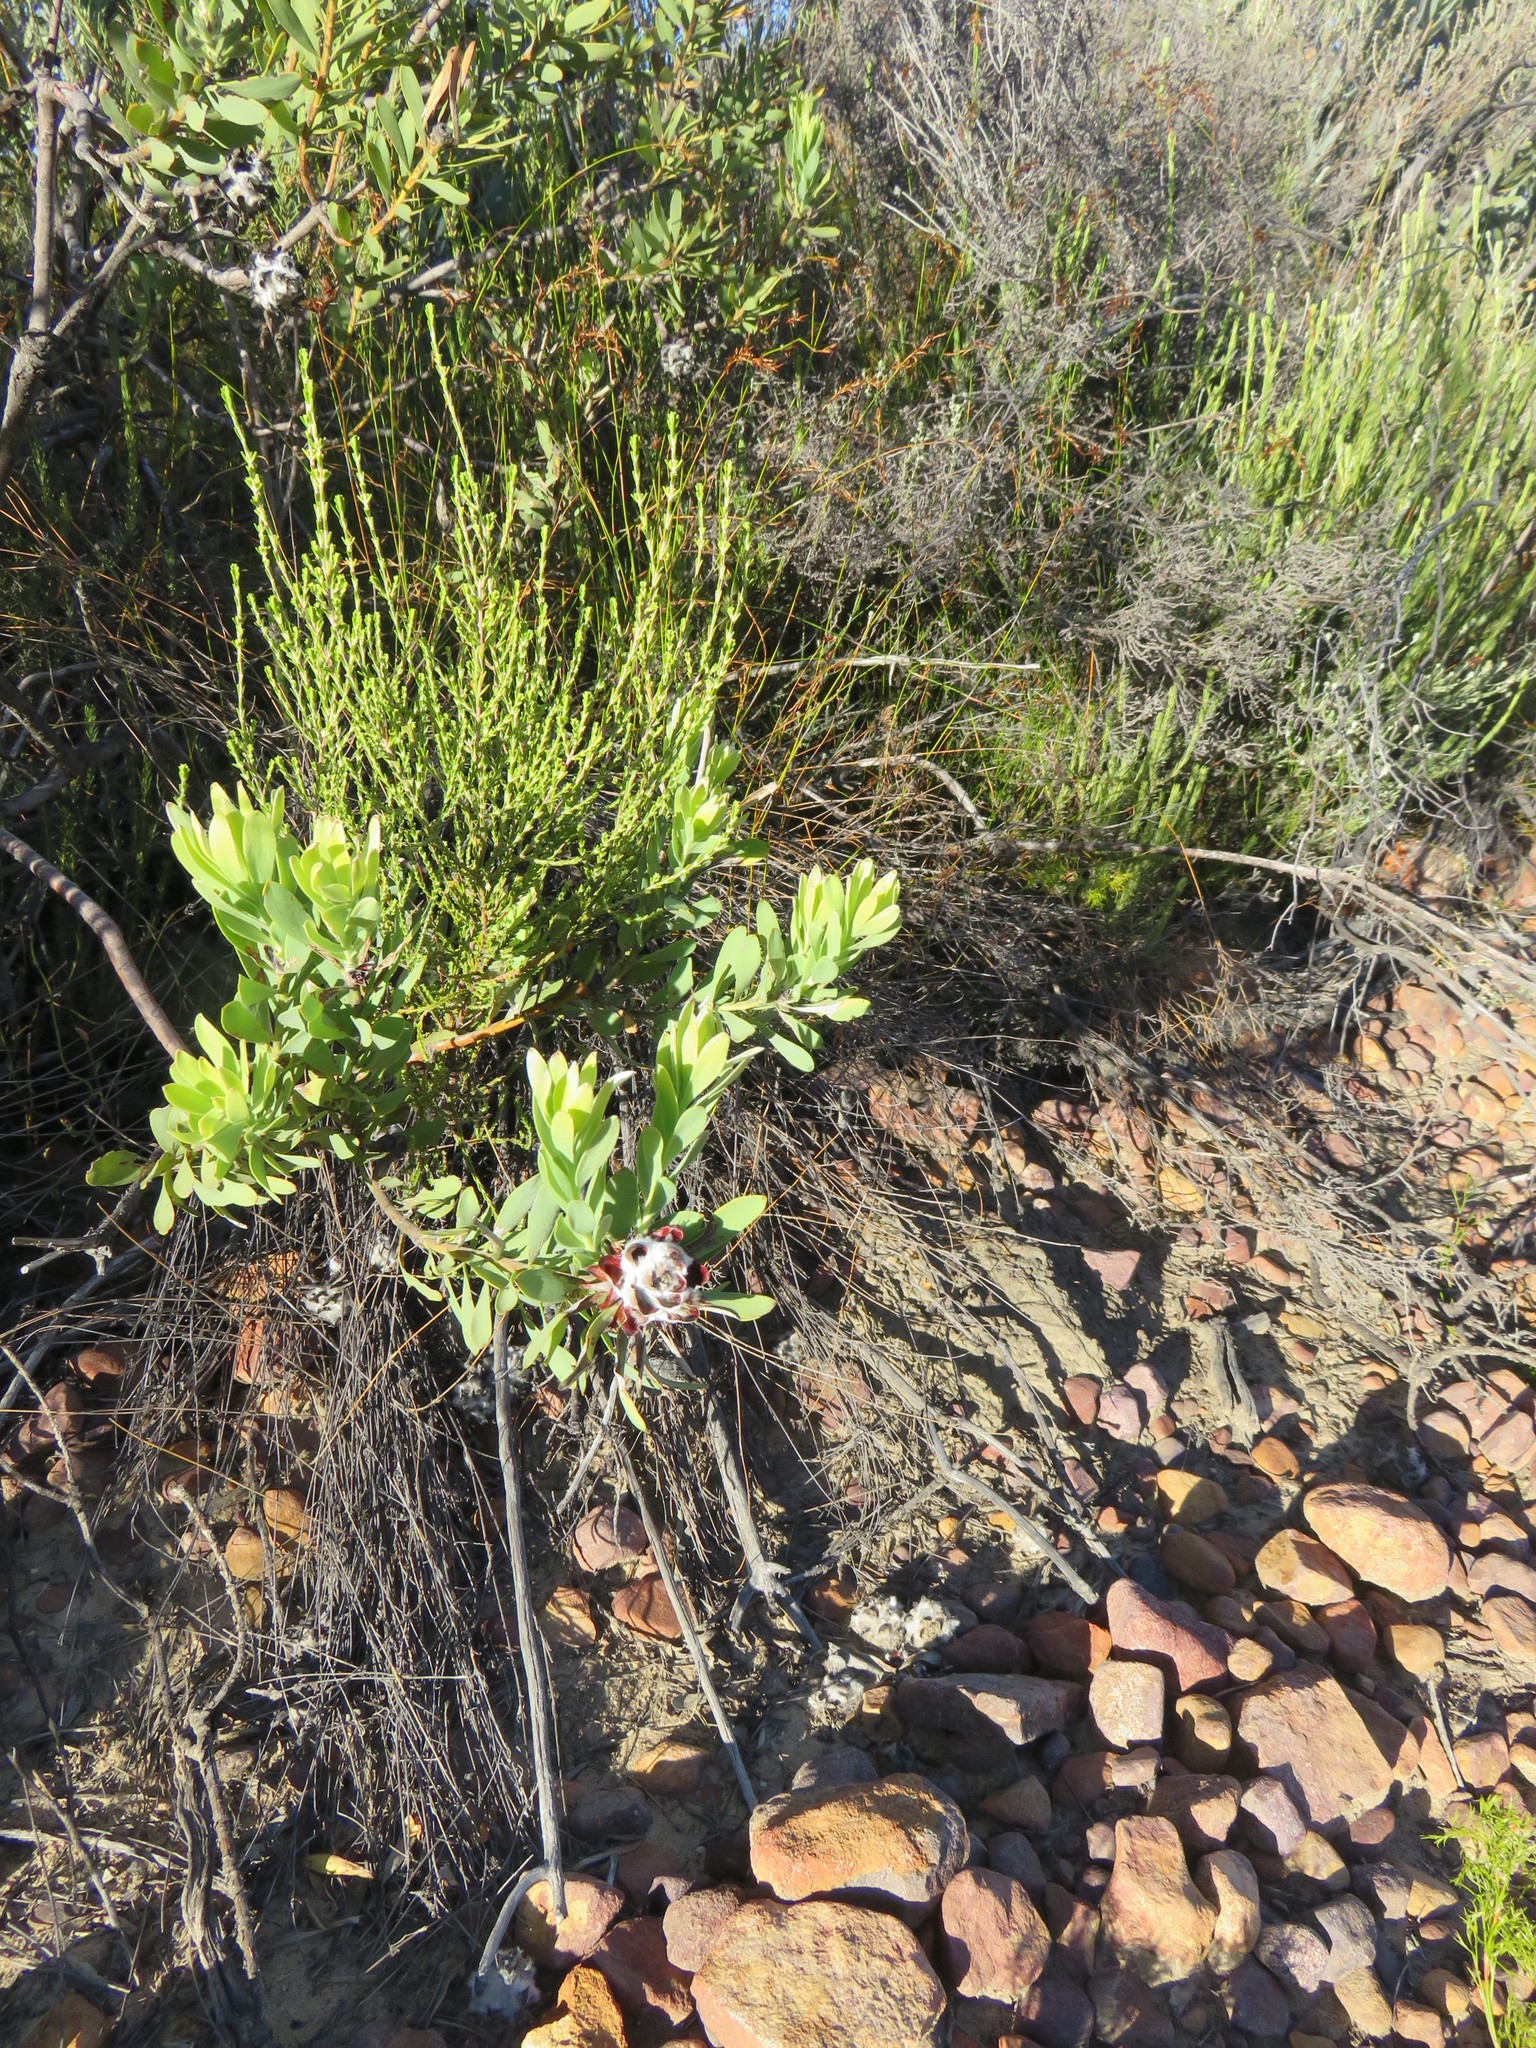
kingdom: Plantae
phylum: Tracheophyta
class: Magnoliopsida
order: Proteales
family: Proteaceae
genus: Leucadendron
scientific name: Leucadendron pubescens
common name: Grey conebush
